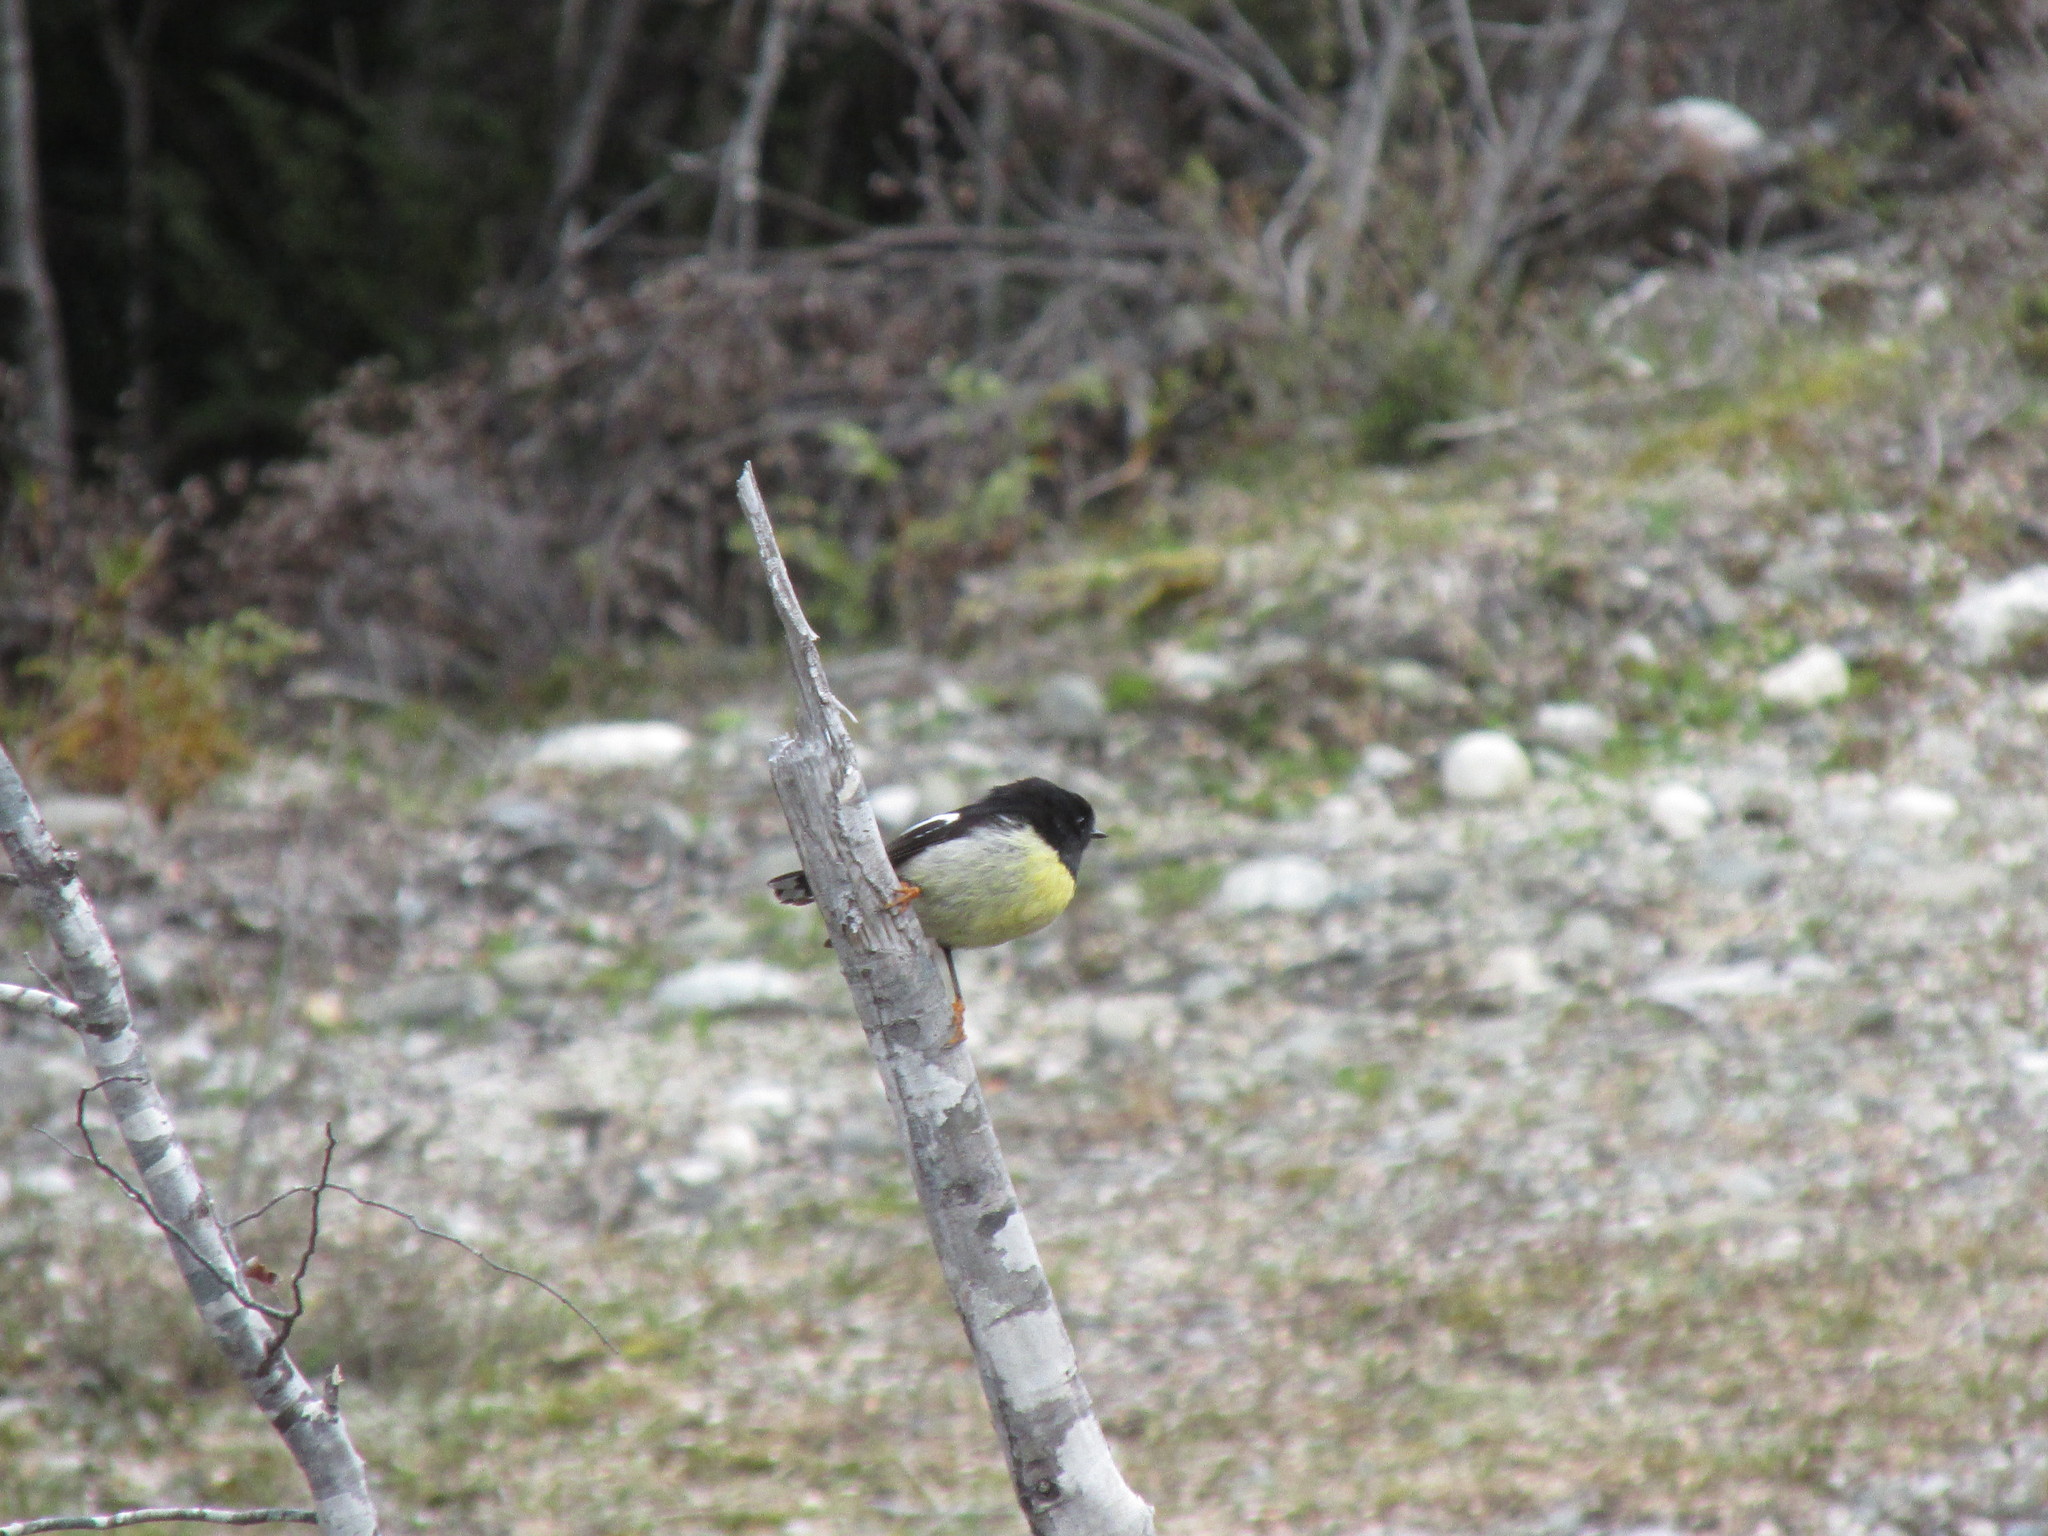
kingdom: Animalia
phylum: Chordata
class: Aves
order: Passeriformes
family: Petroicidae
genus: Petroica
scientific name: Petroica macrocephala
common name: Tomtit
